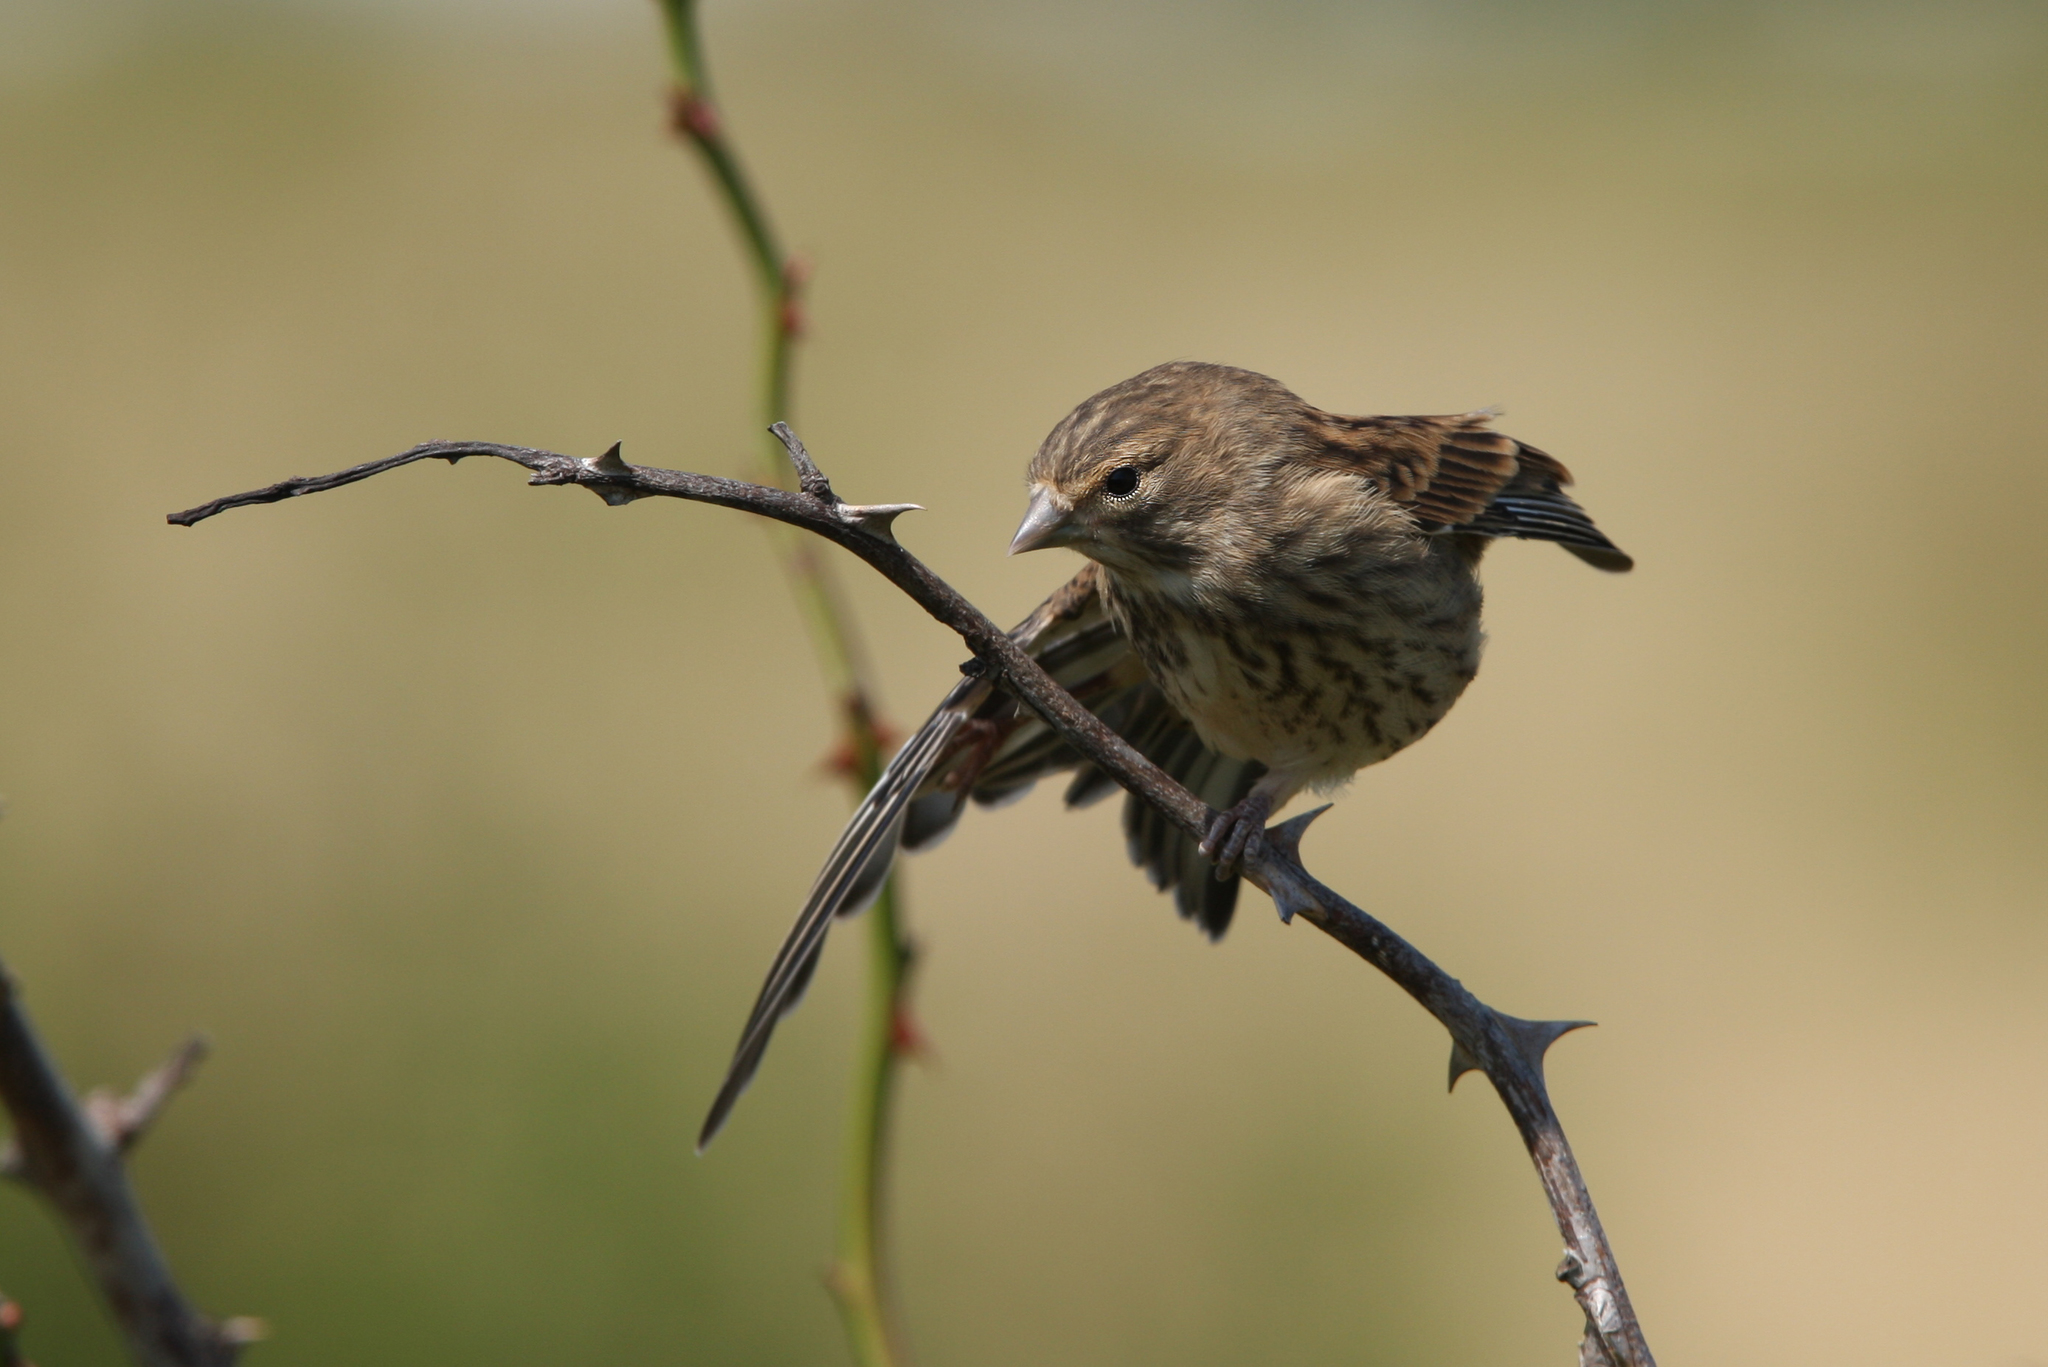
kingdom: Animalia
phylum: Chordata
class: Aves
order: Passeriformes
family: Fringillidae
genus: Linaria
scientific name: Linaria cannabina
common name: Common linnet
